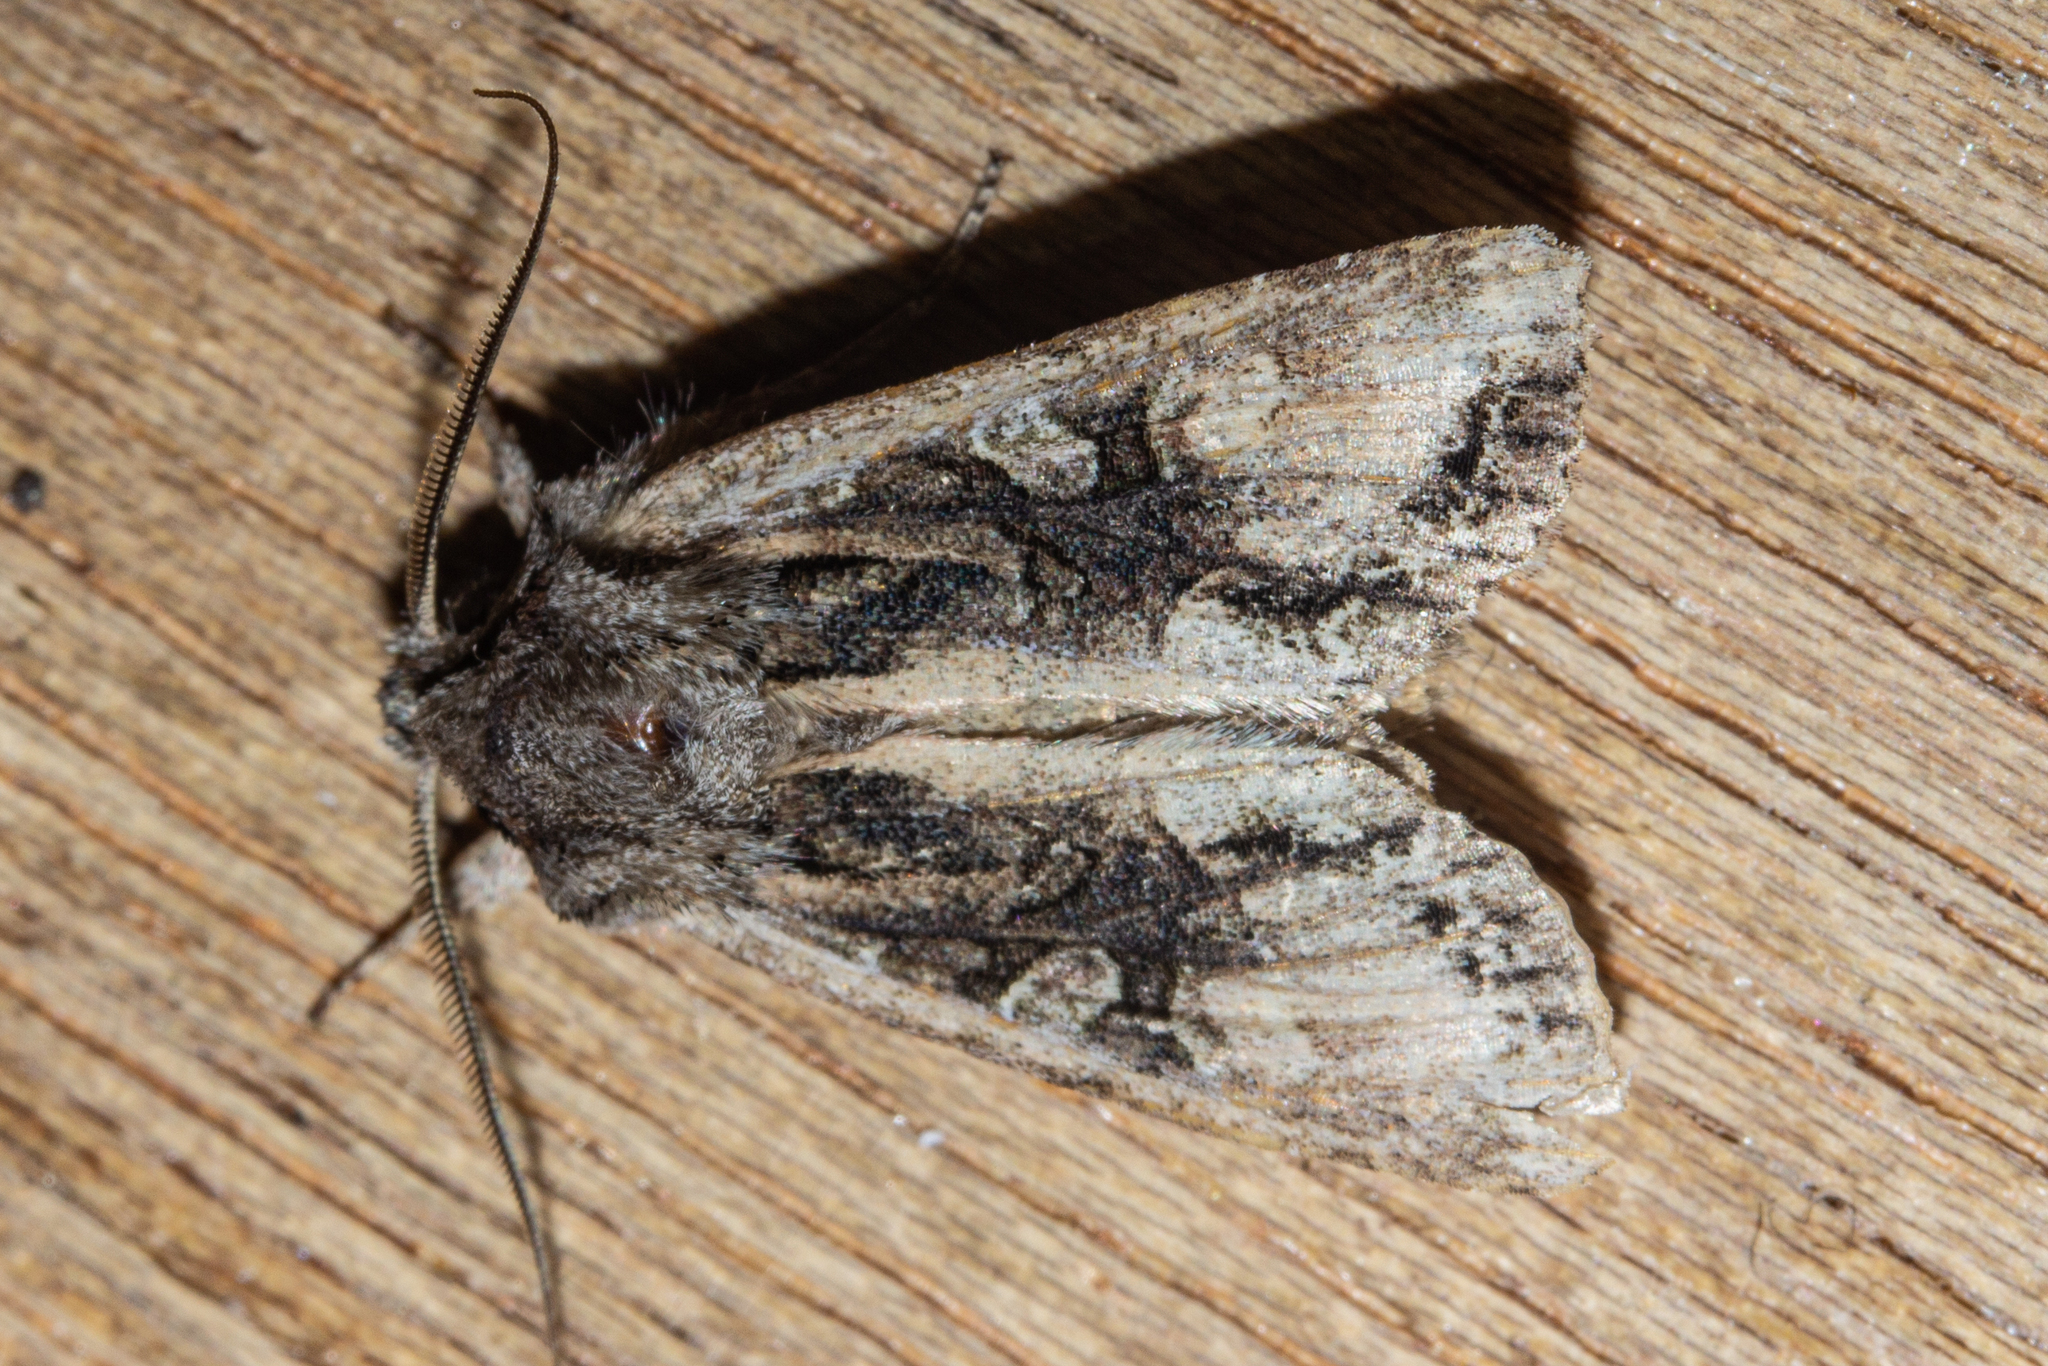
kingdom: Animalia
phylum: Arthropoda
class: Insecta
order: Lepidoptera
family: Noctuidae
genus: Ichneutica
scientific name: Ichneutica mutans
